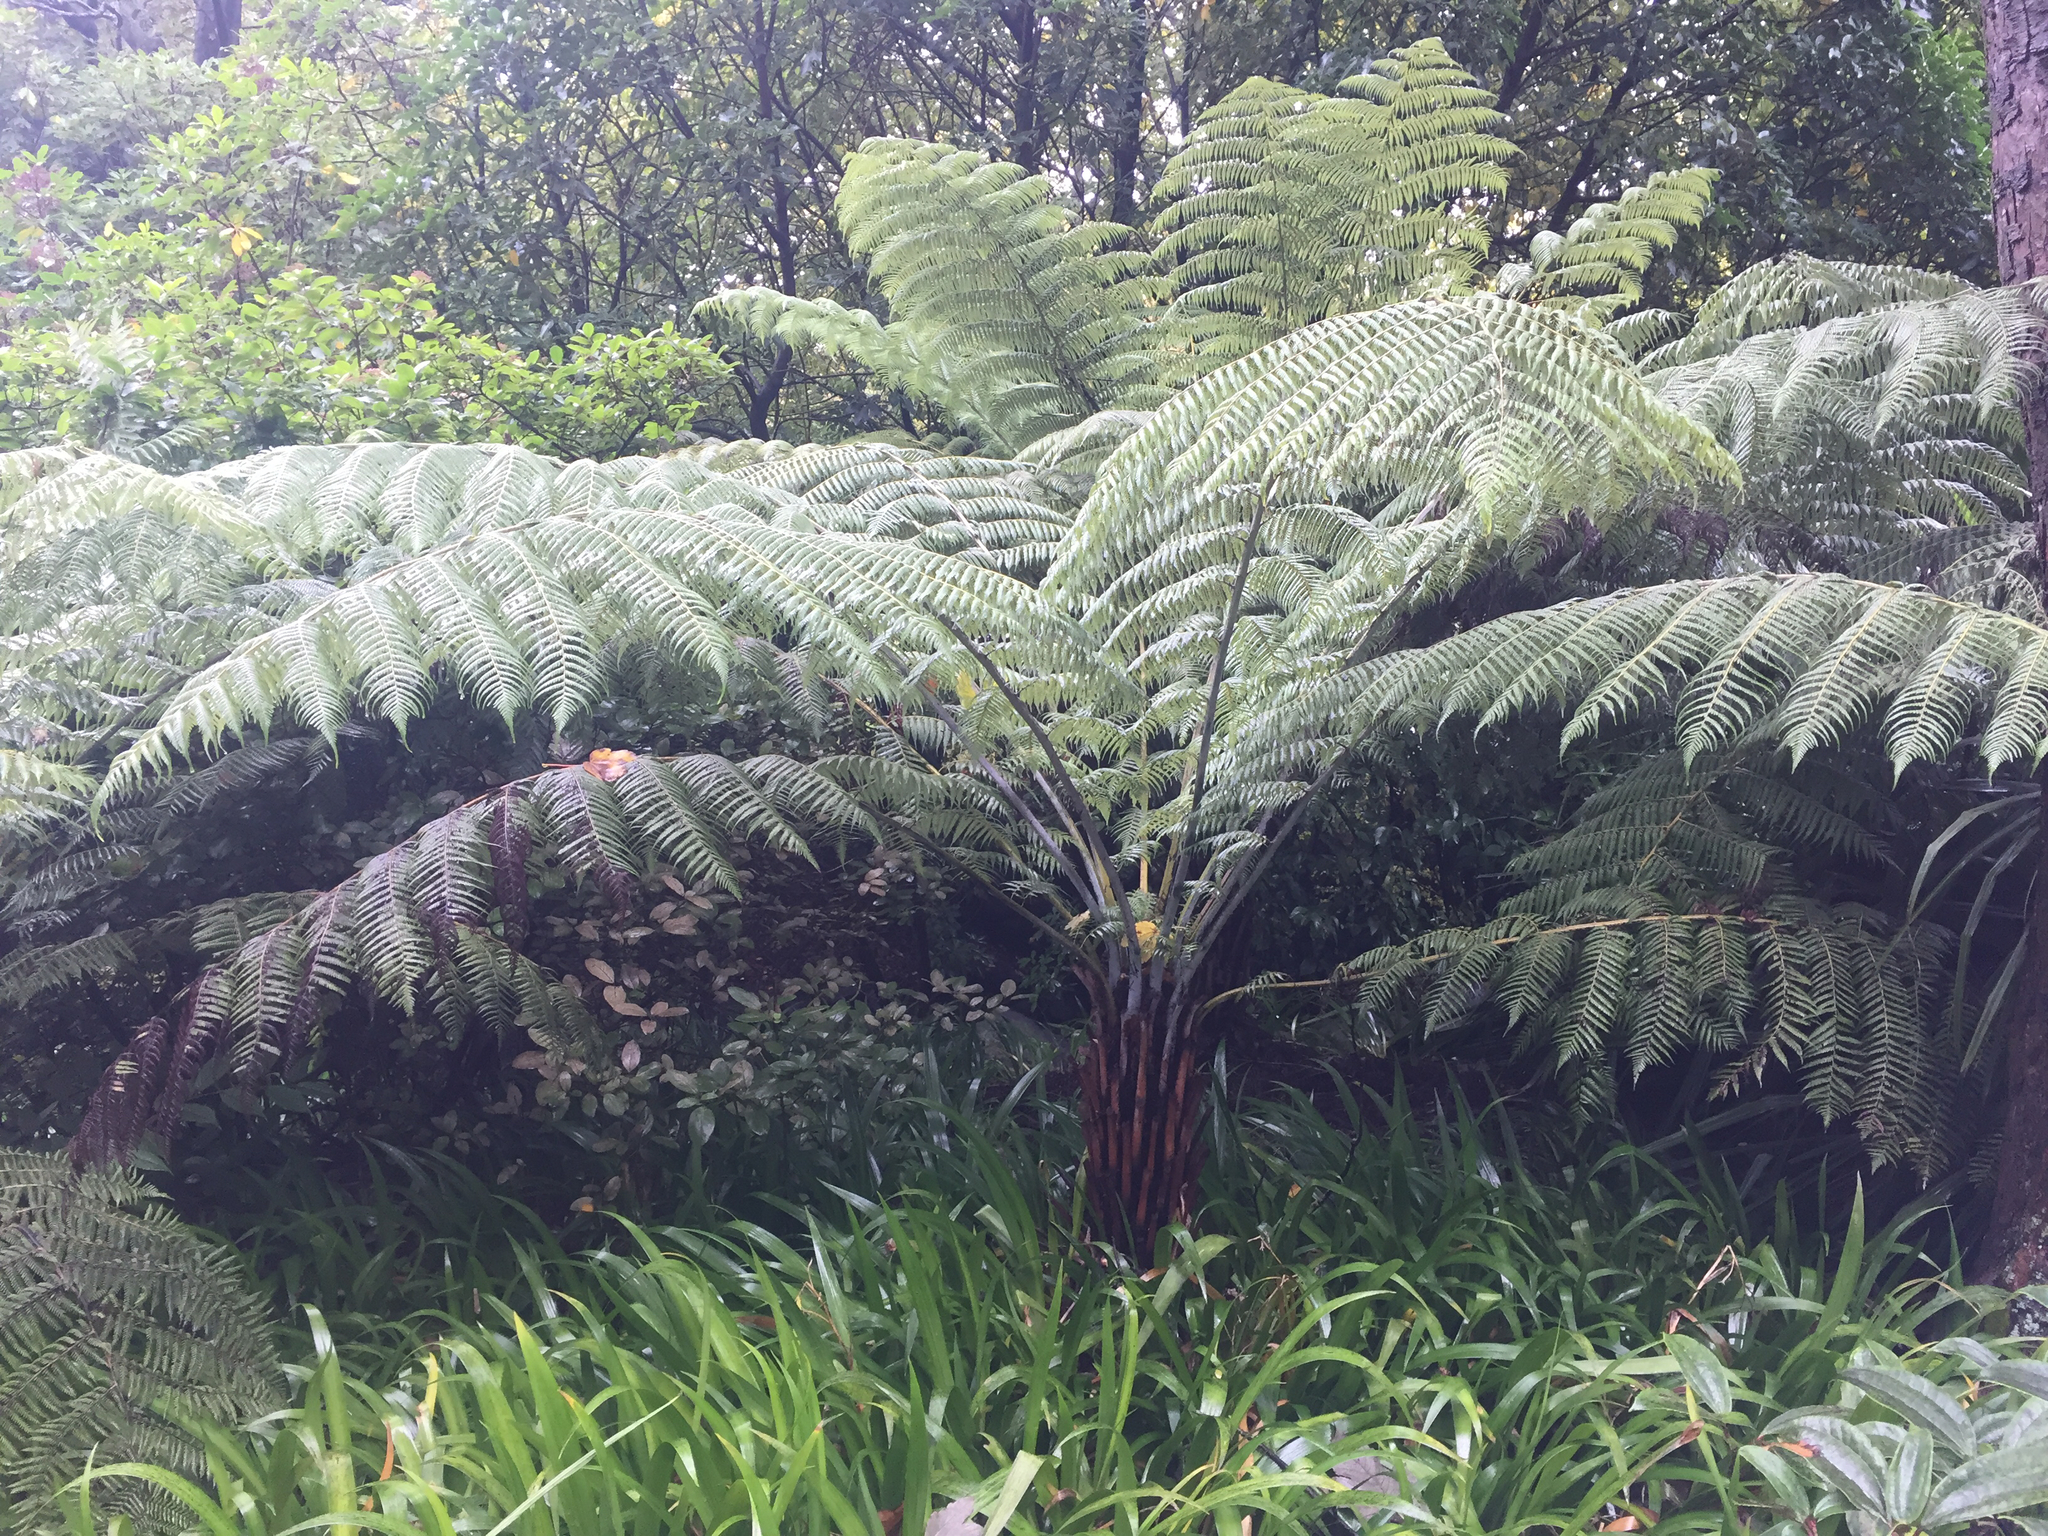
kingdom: Plantae
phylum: Tracheophyta
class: Polypodiopsida
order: Cyatheales
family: Cyatheaceae
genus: Alsophila
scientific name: Alsophila dealbata
